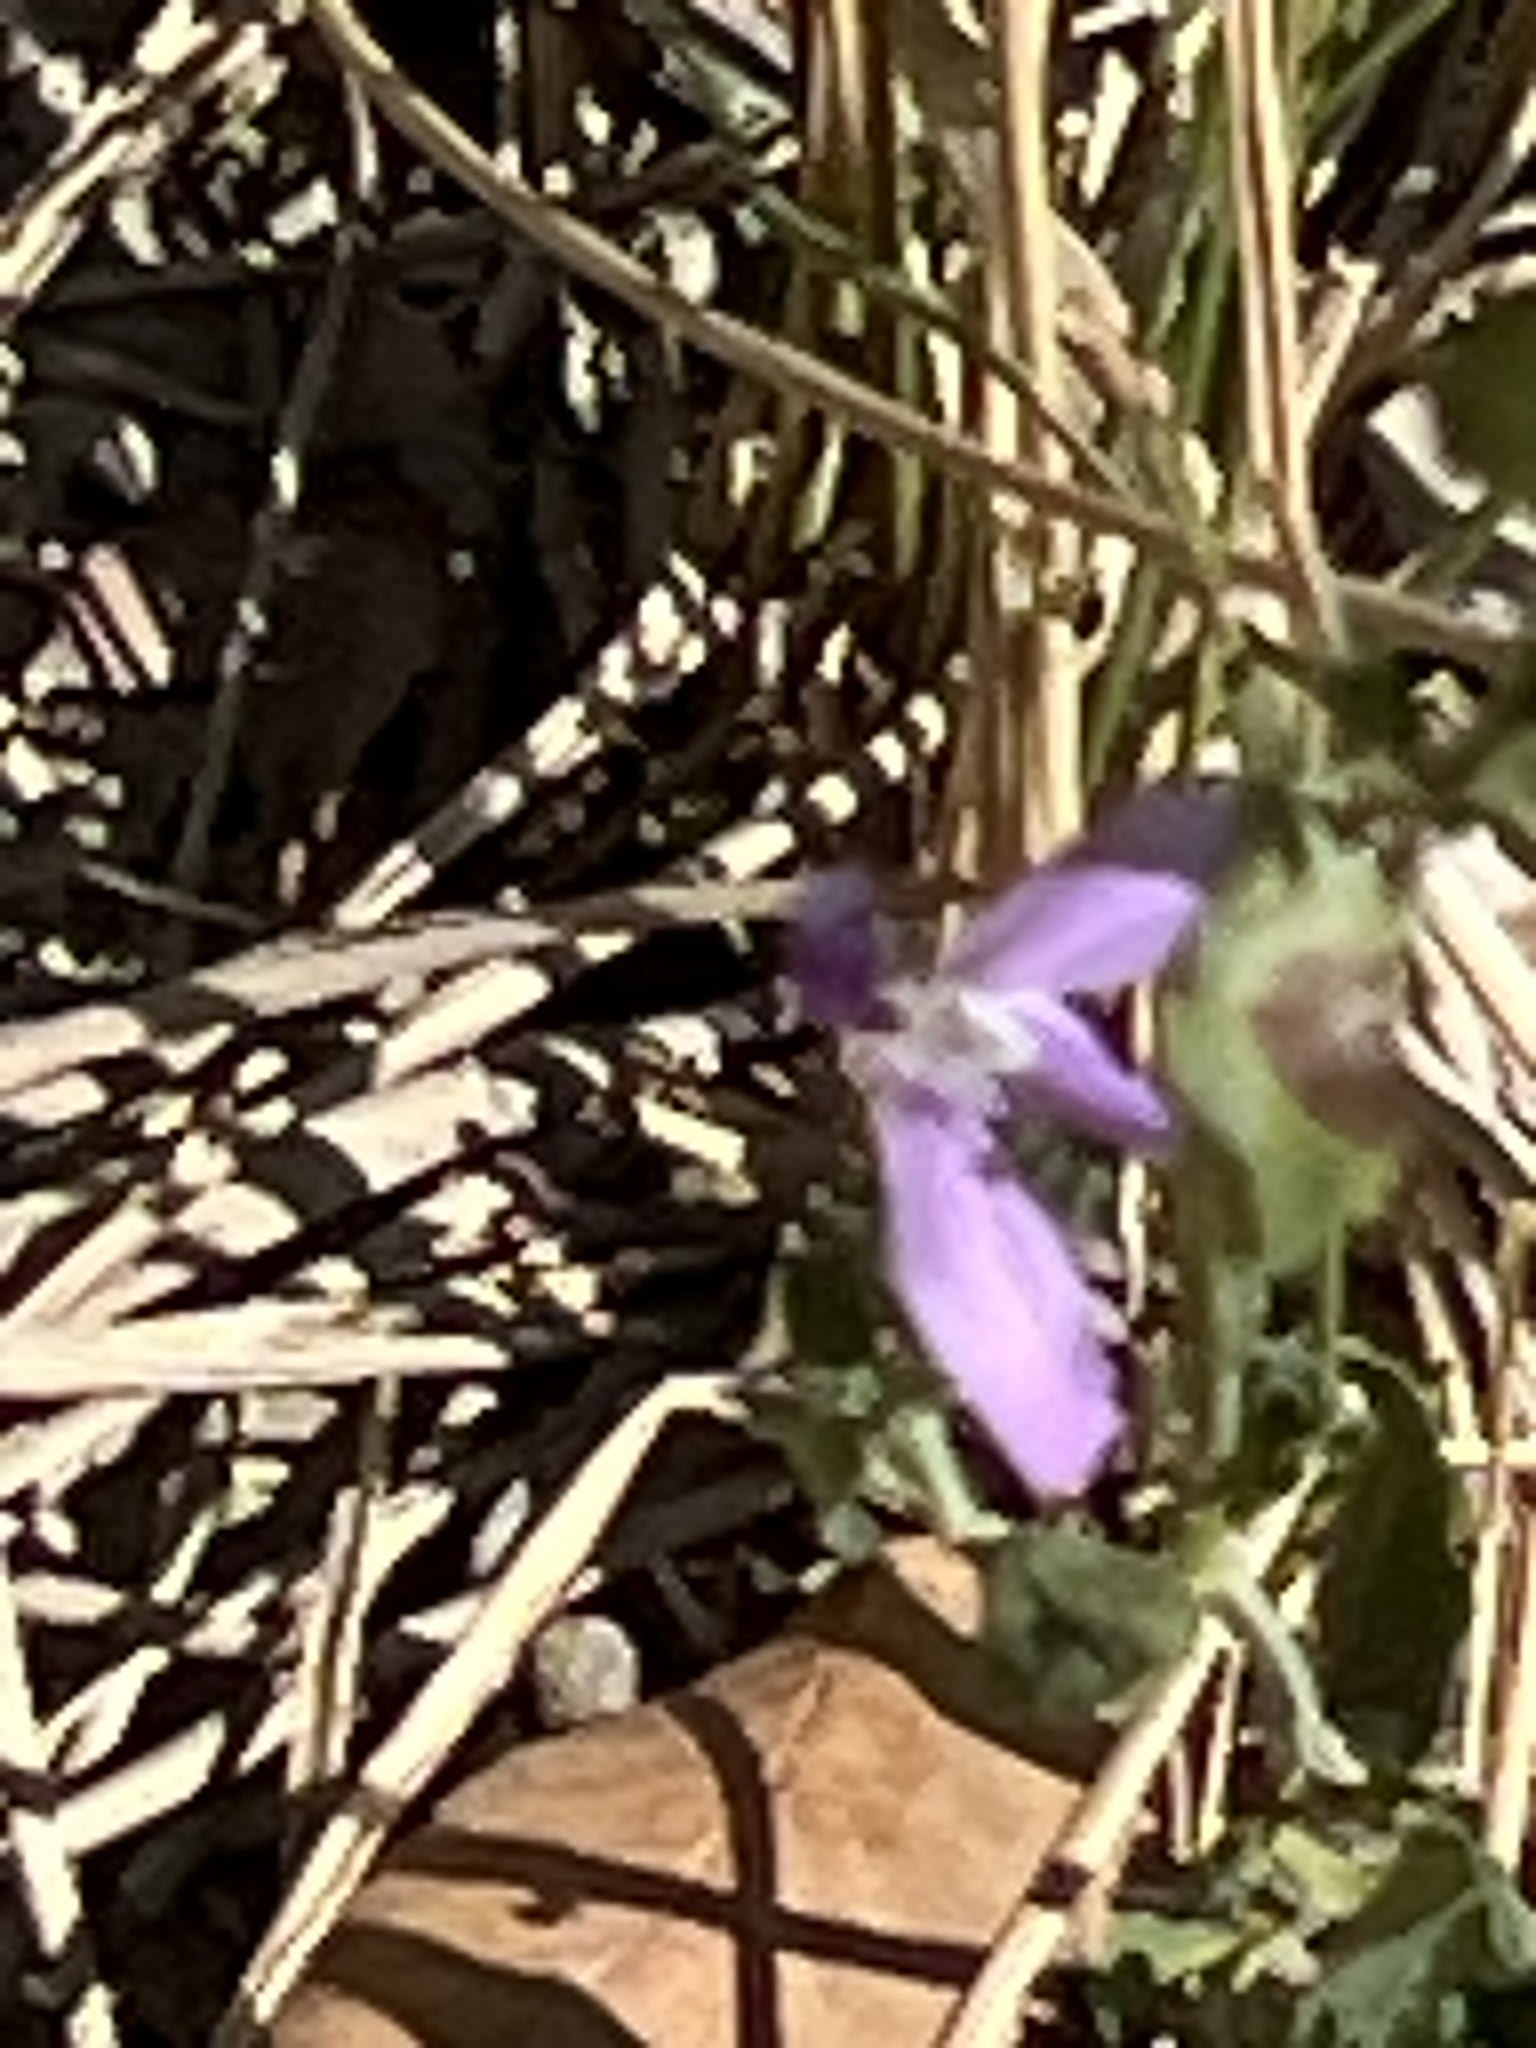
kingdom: Plantae
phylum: Tracheophyta
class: Magnoliopsida
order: Lamiales
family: Acanthaceae
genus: Justicia
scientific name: Justicia pilosella
